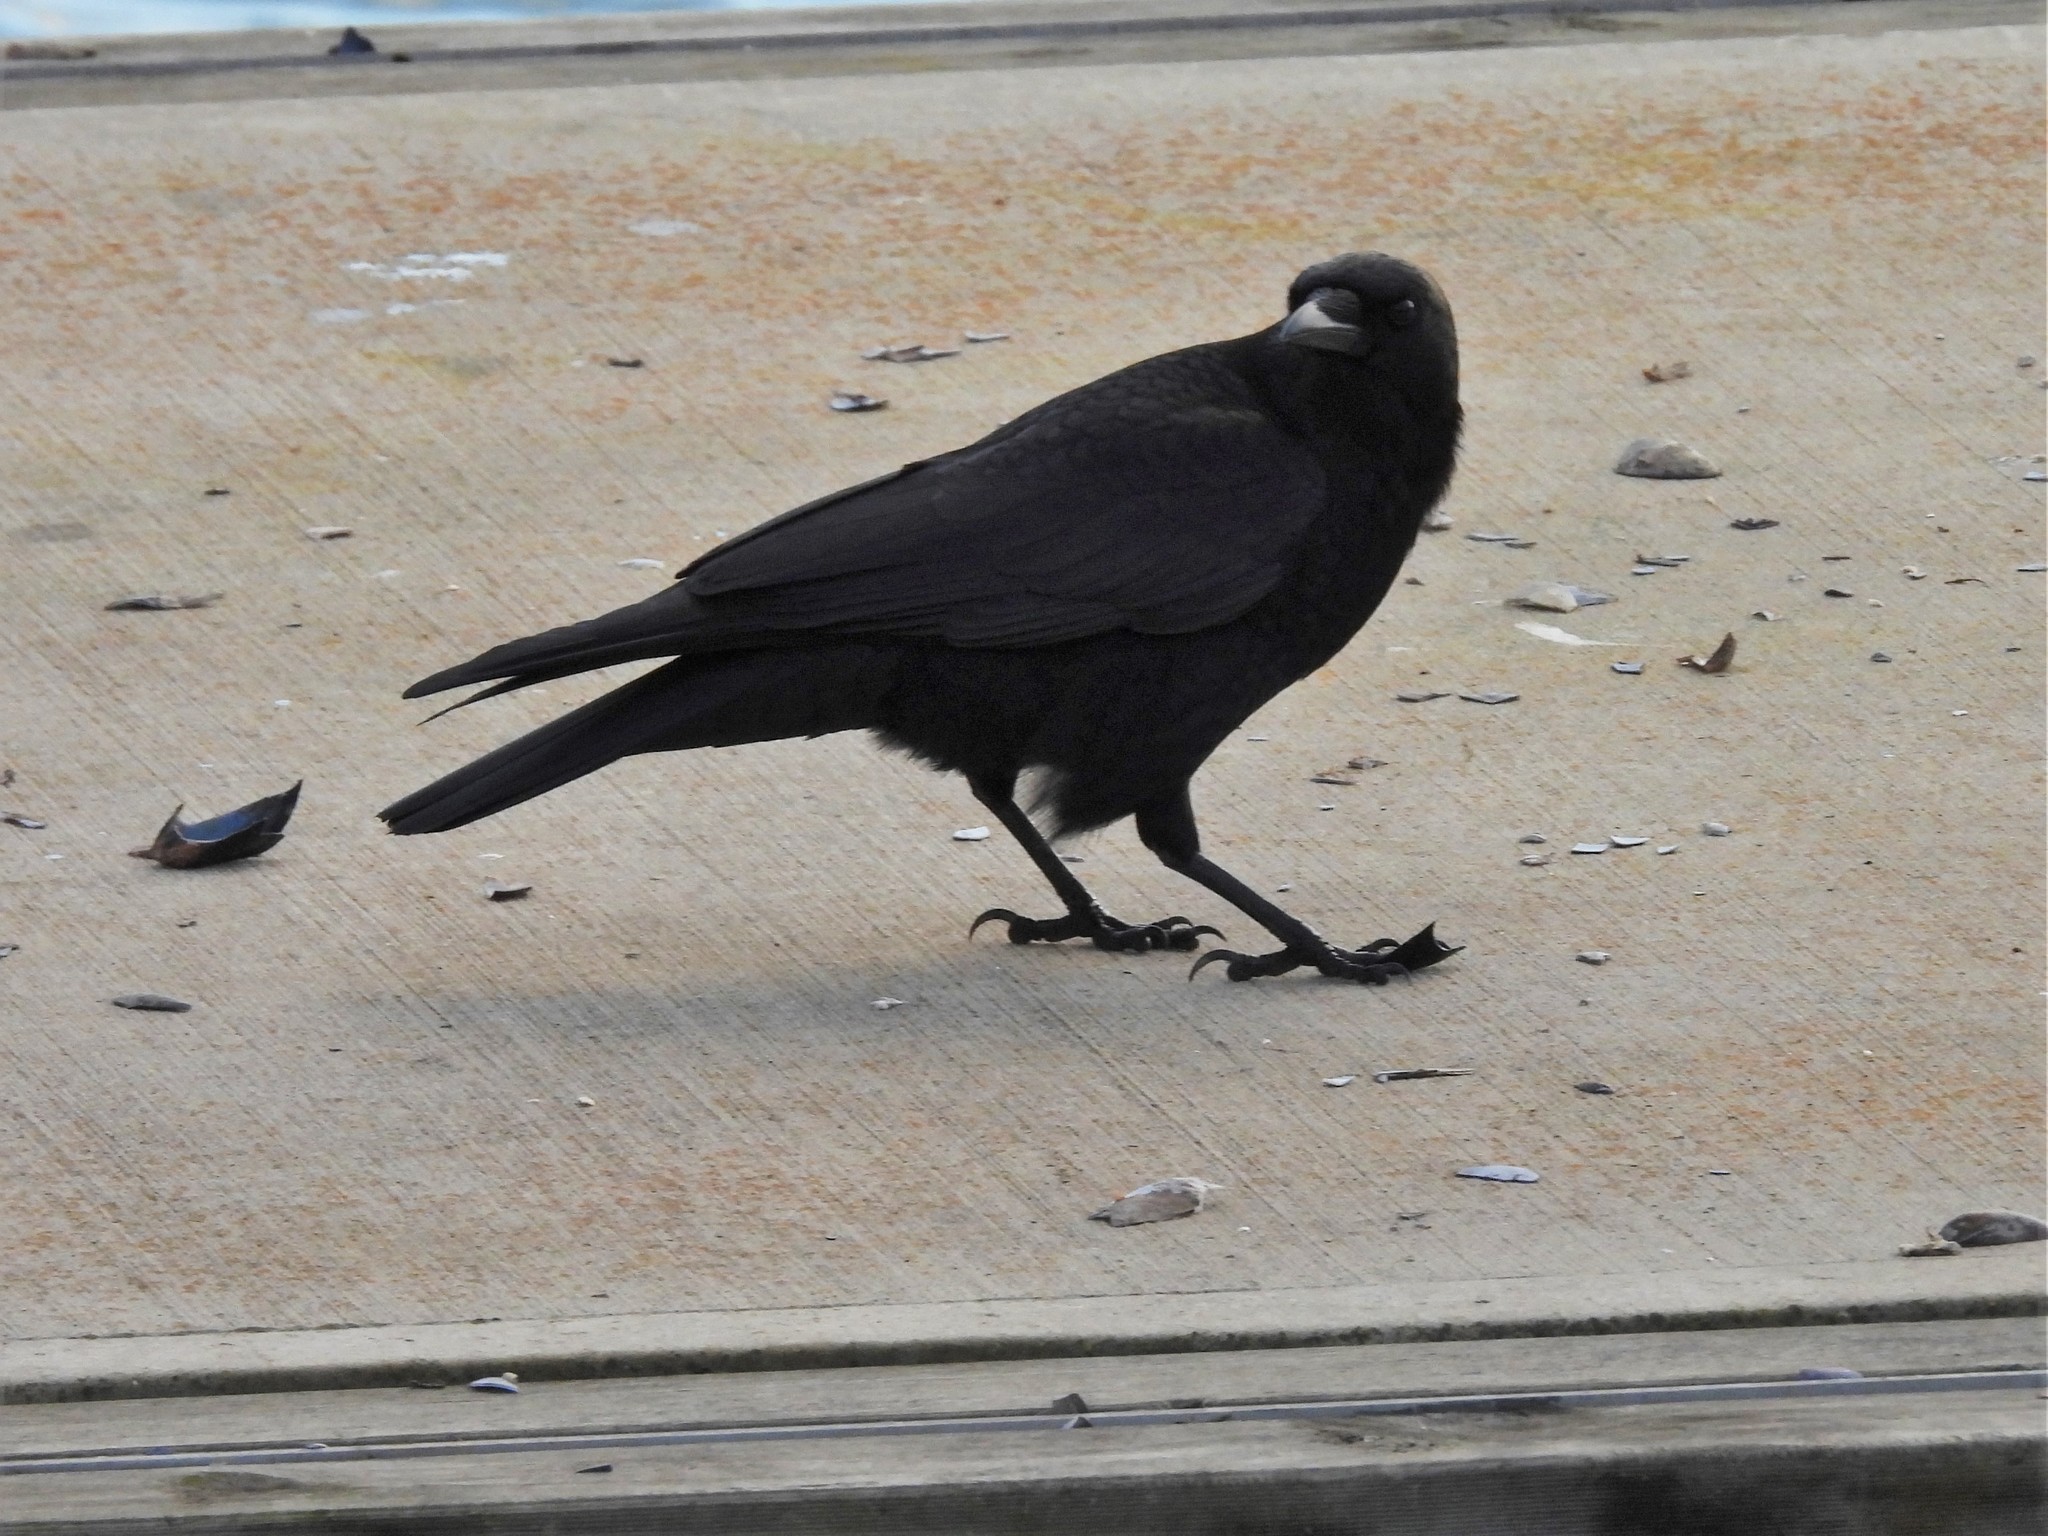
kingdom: Animalia
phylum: Chordata
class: Aves
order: Passeriformes
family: Corvidae
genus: Corvus
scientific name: Corvus brachyrhynchos
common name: American crow
